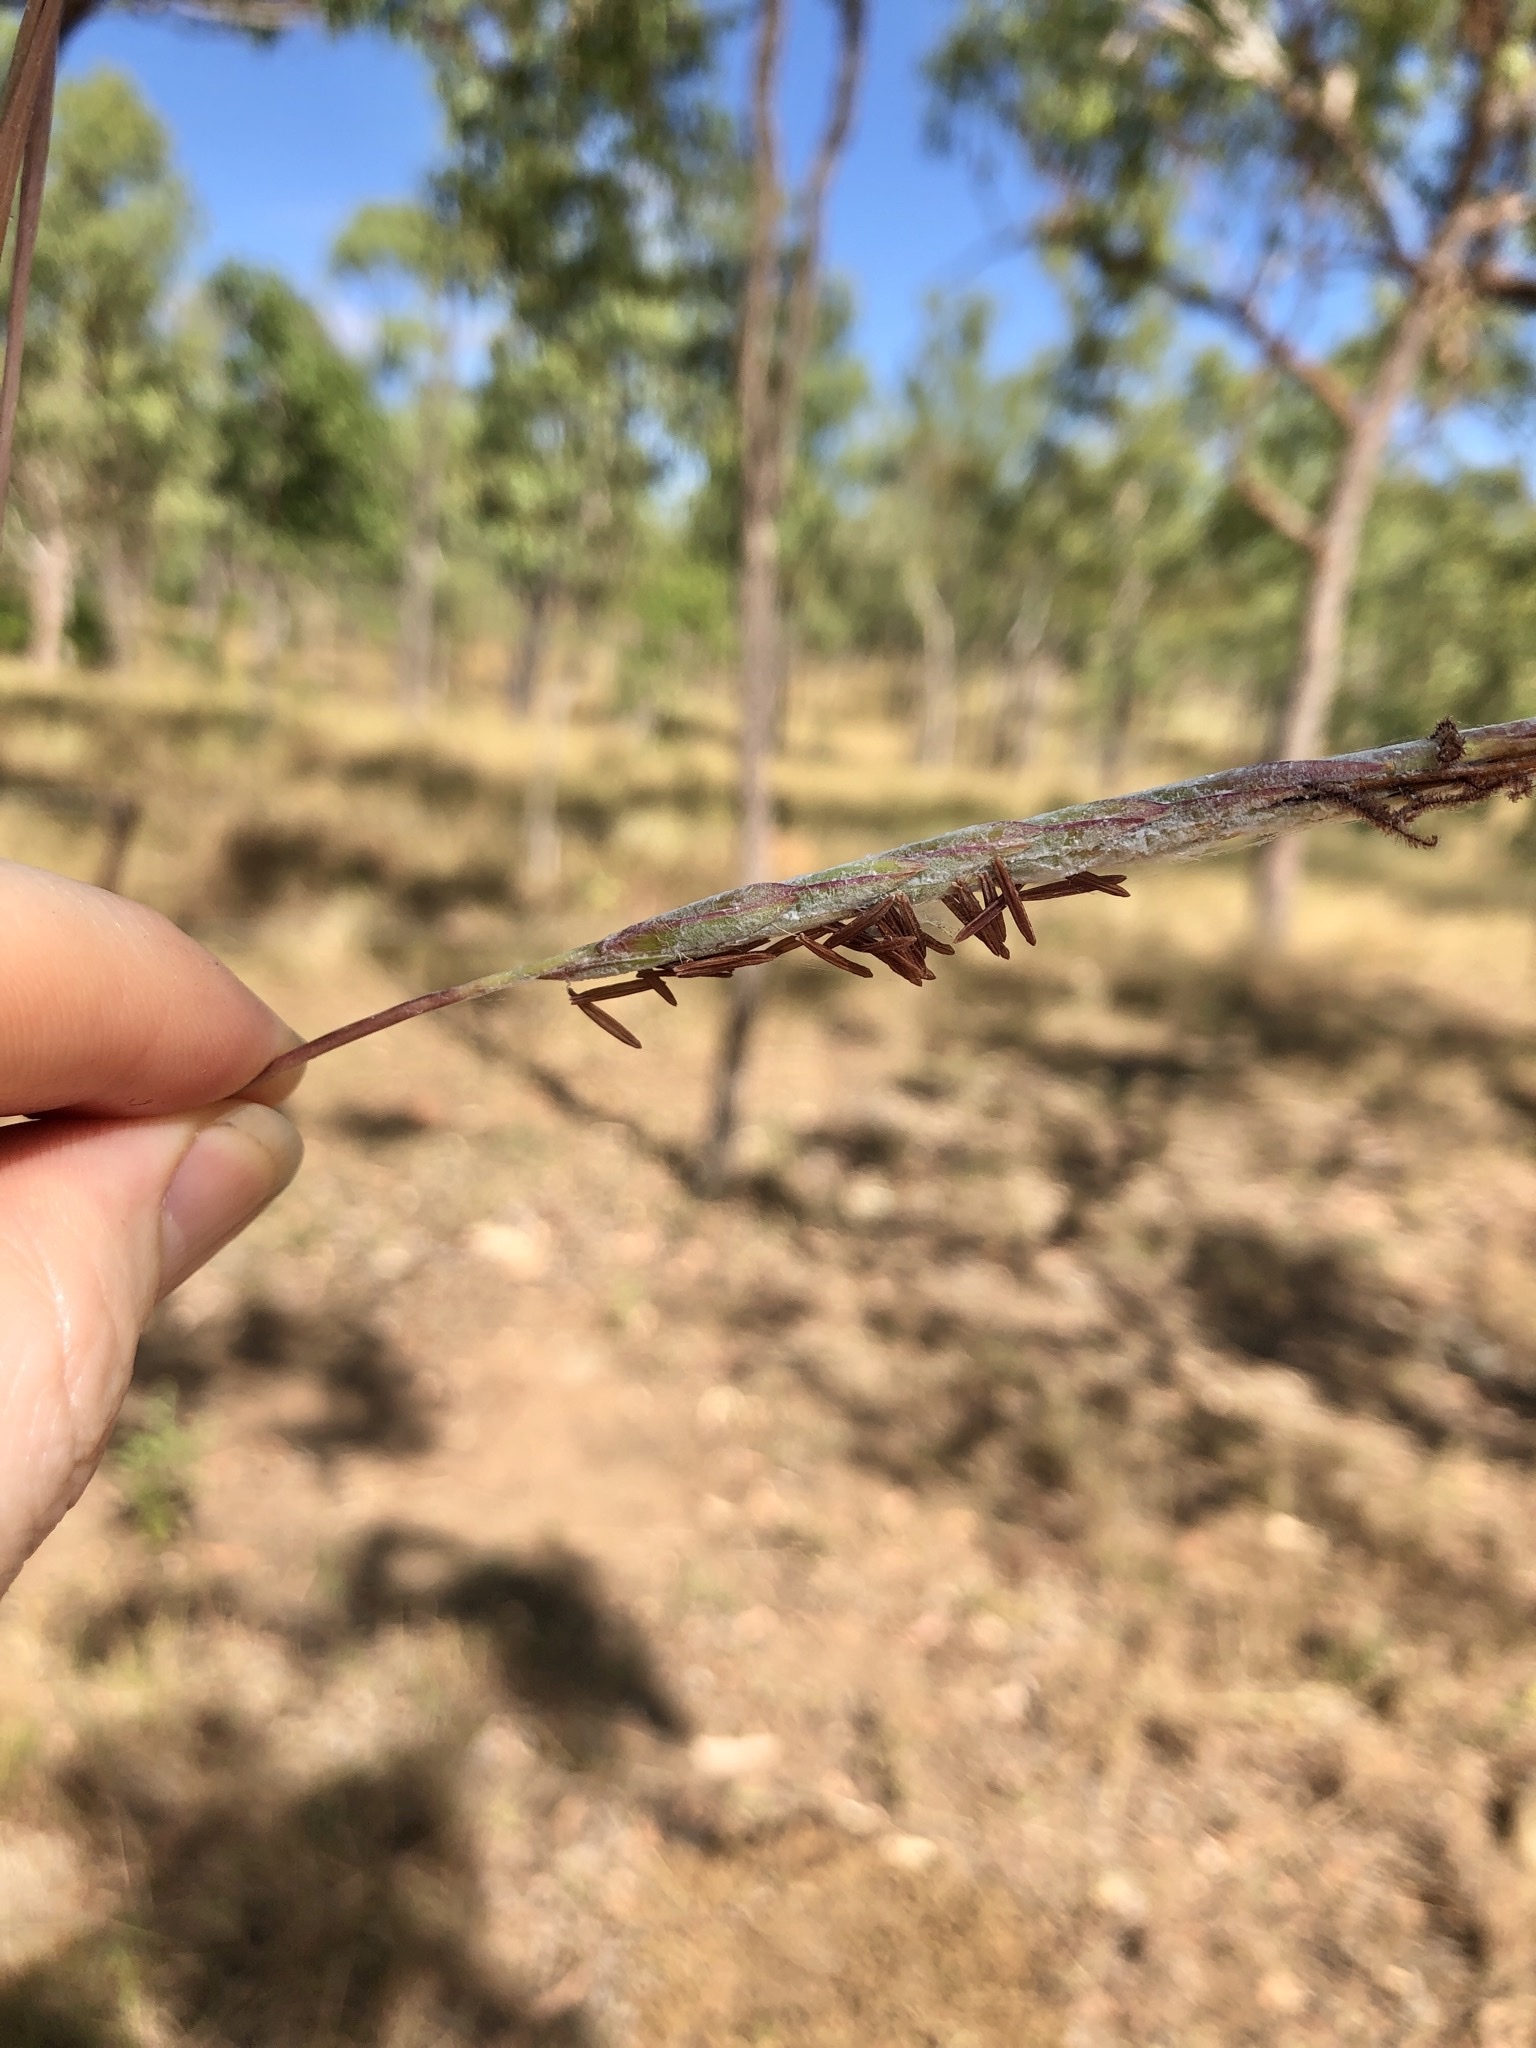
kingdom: Plantae
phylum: Tracheophyta
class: Liliopsida
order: Poales
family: Poaceae
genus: Heteropogon
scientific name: Heteropogon triticeus
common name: Sugar grass
